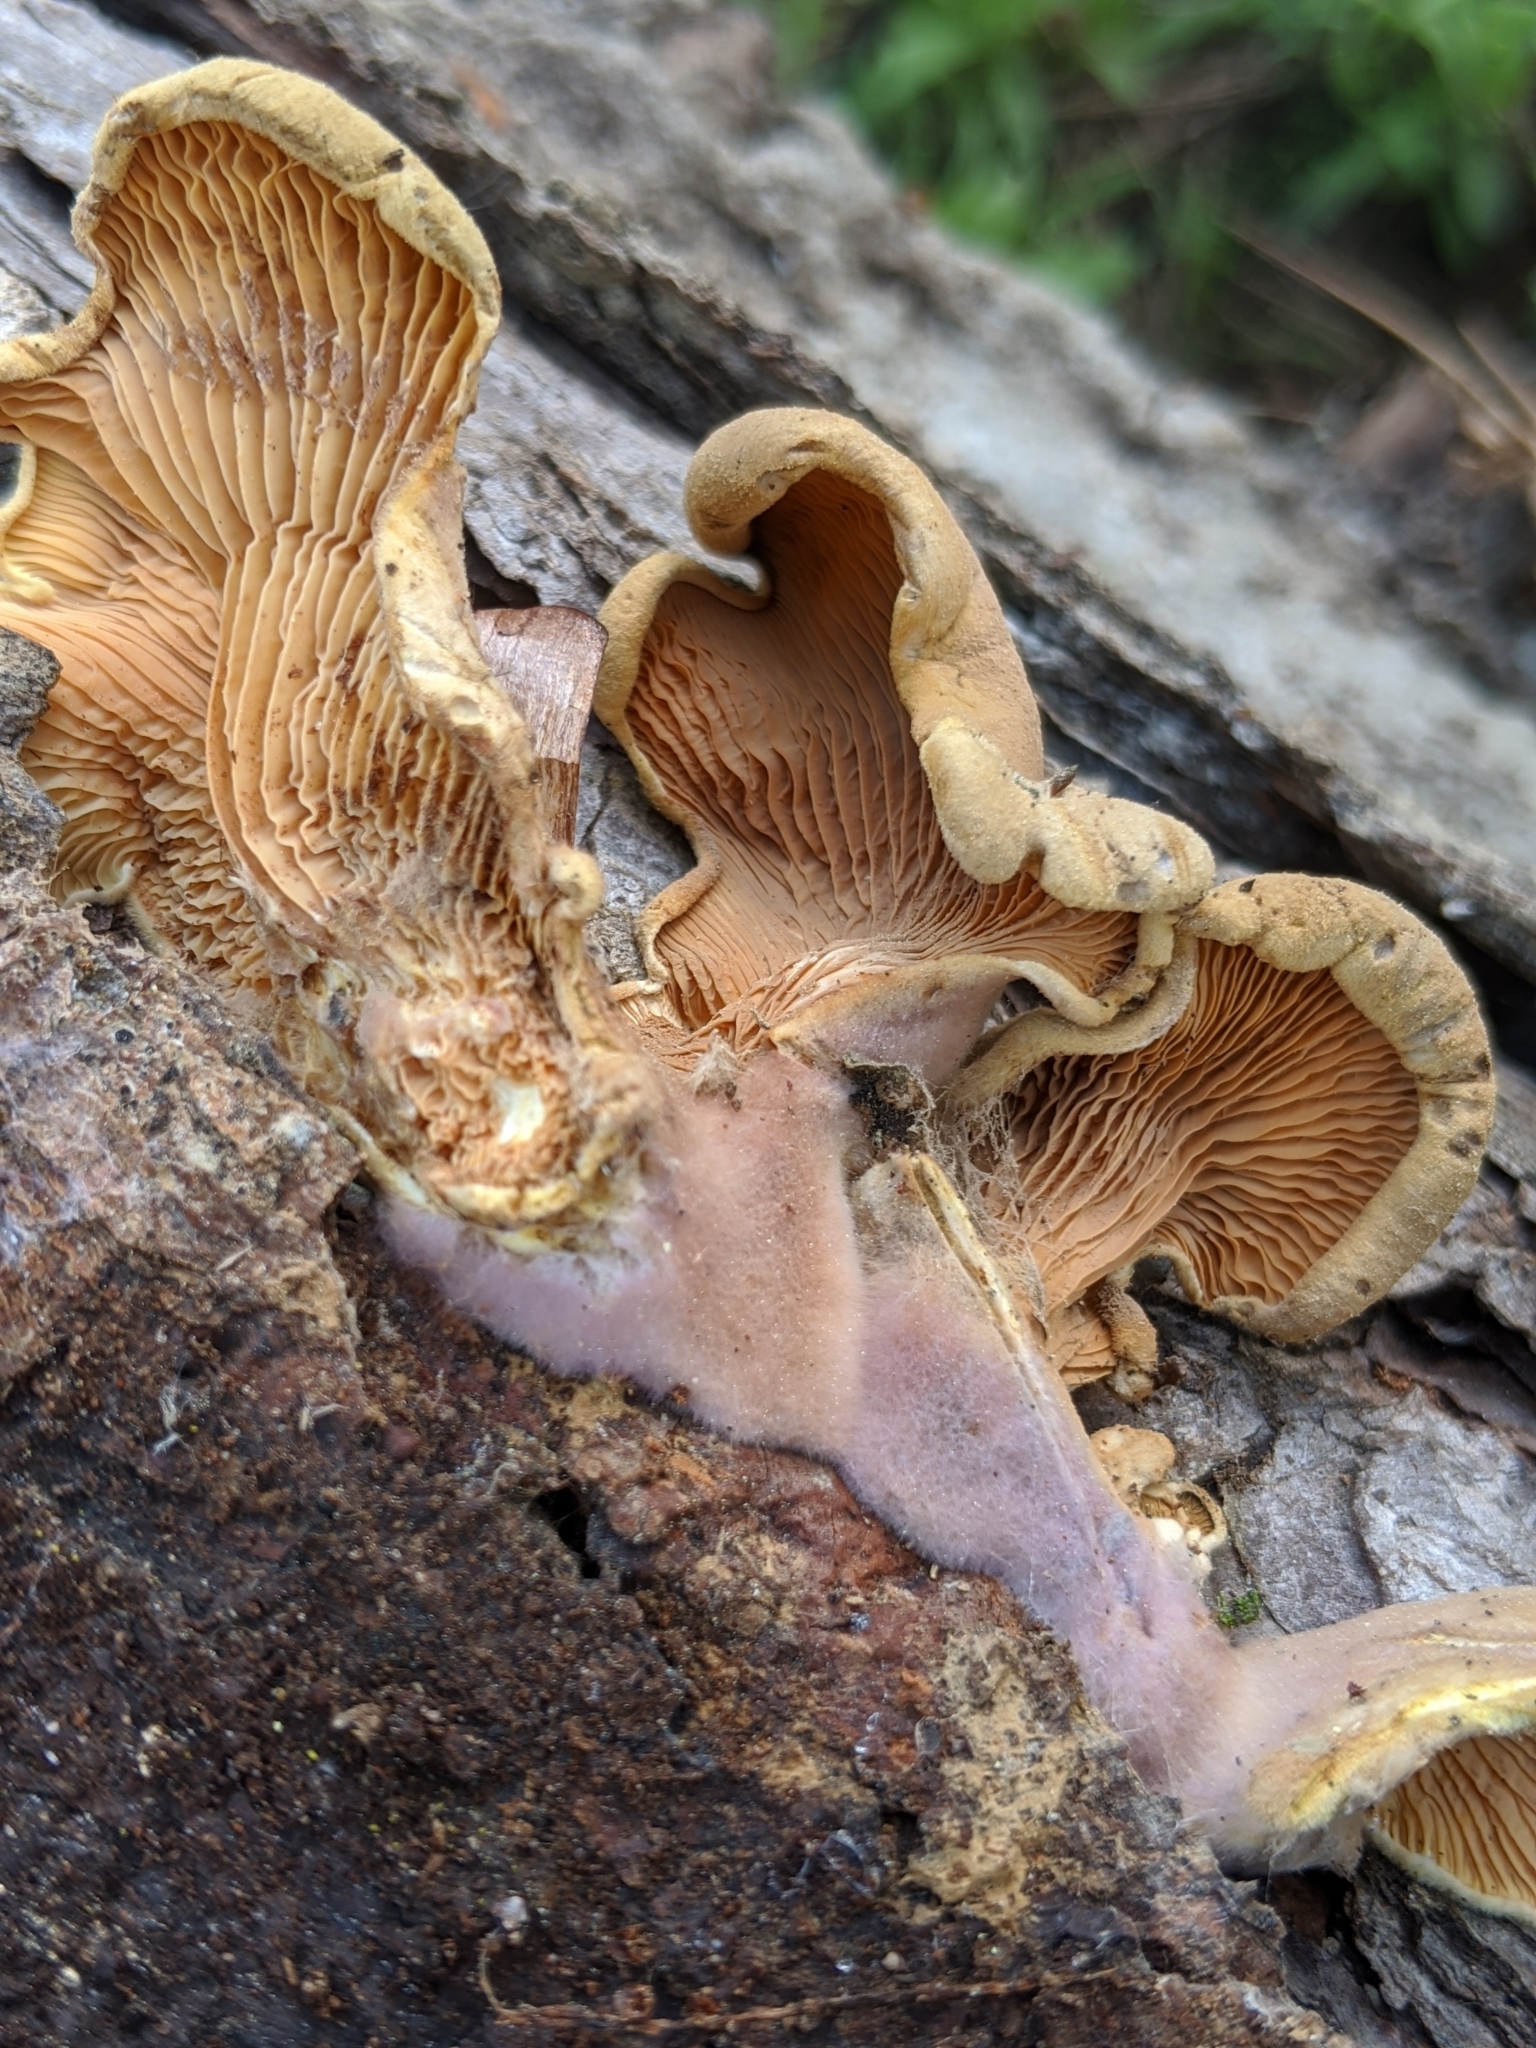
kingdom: Fungi
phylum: Basidiomycota
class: Agaricomycetes
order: Boletales
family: Tapinellaceae
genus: Tapinella
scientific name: Tapinella panuoides
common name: Oyster rollrim
